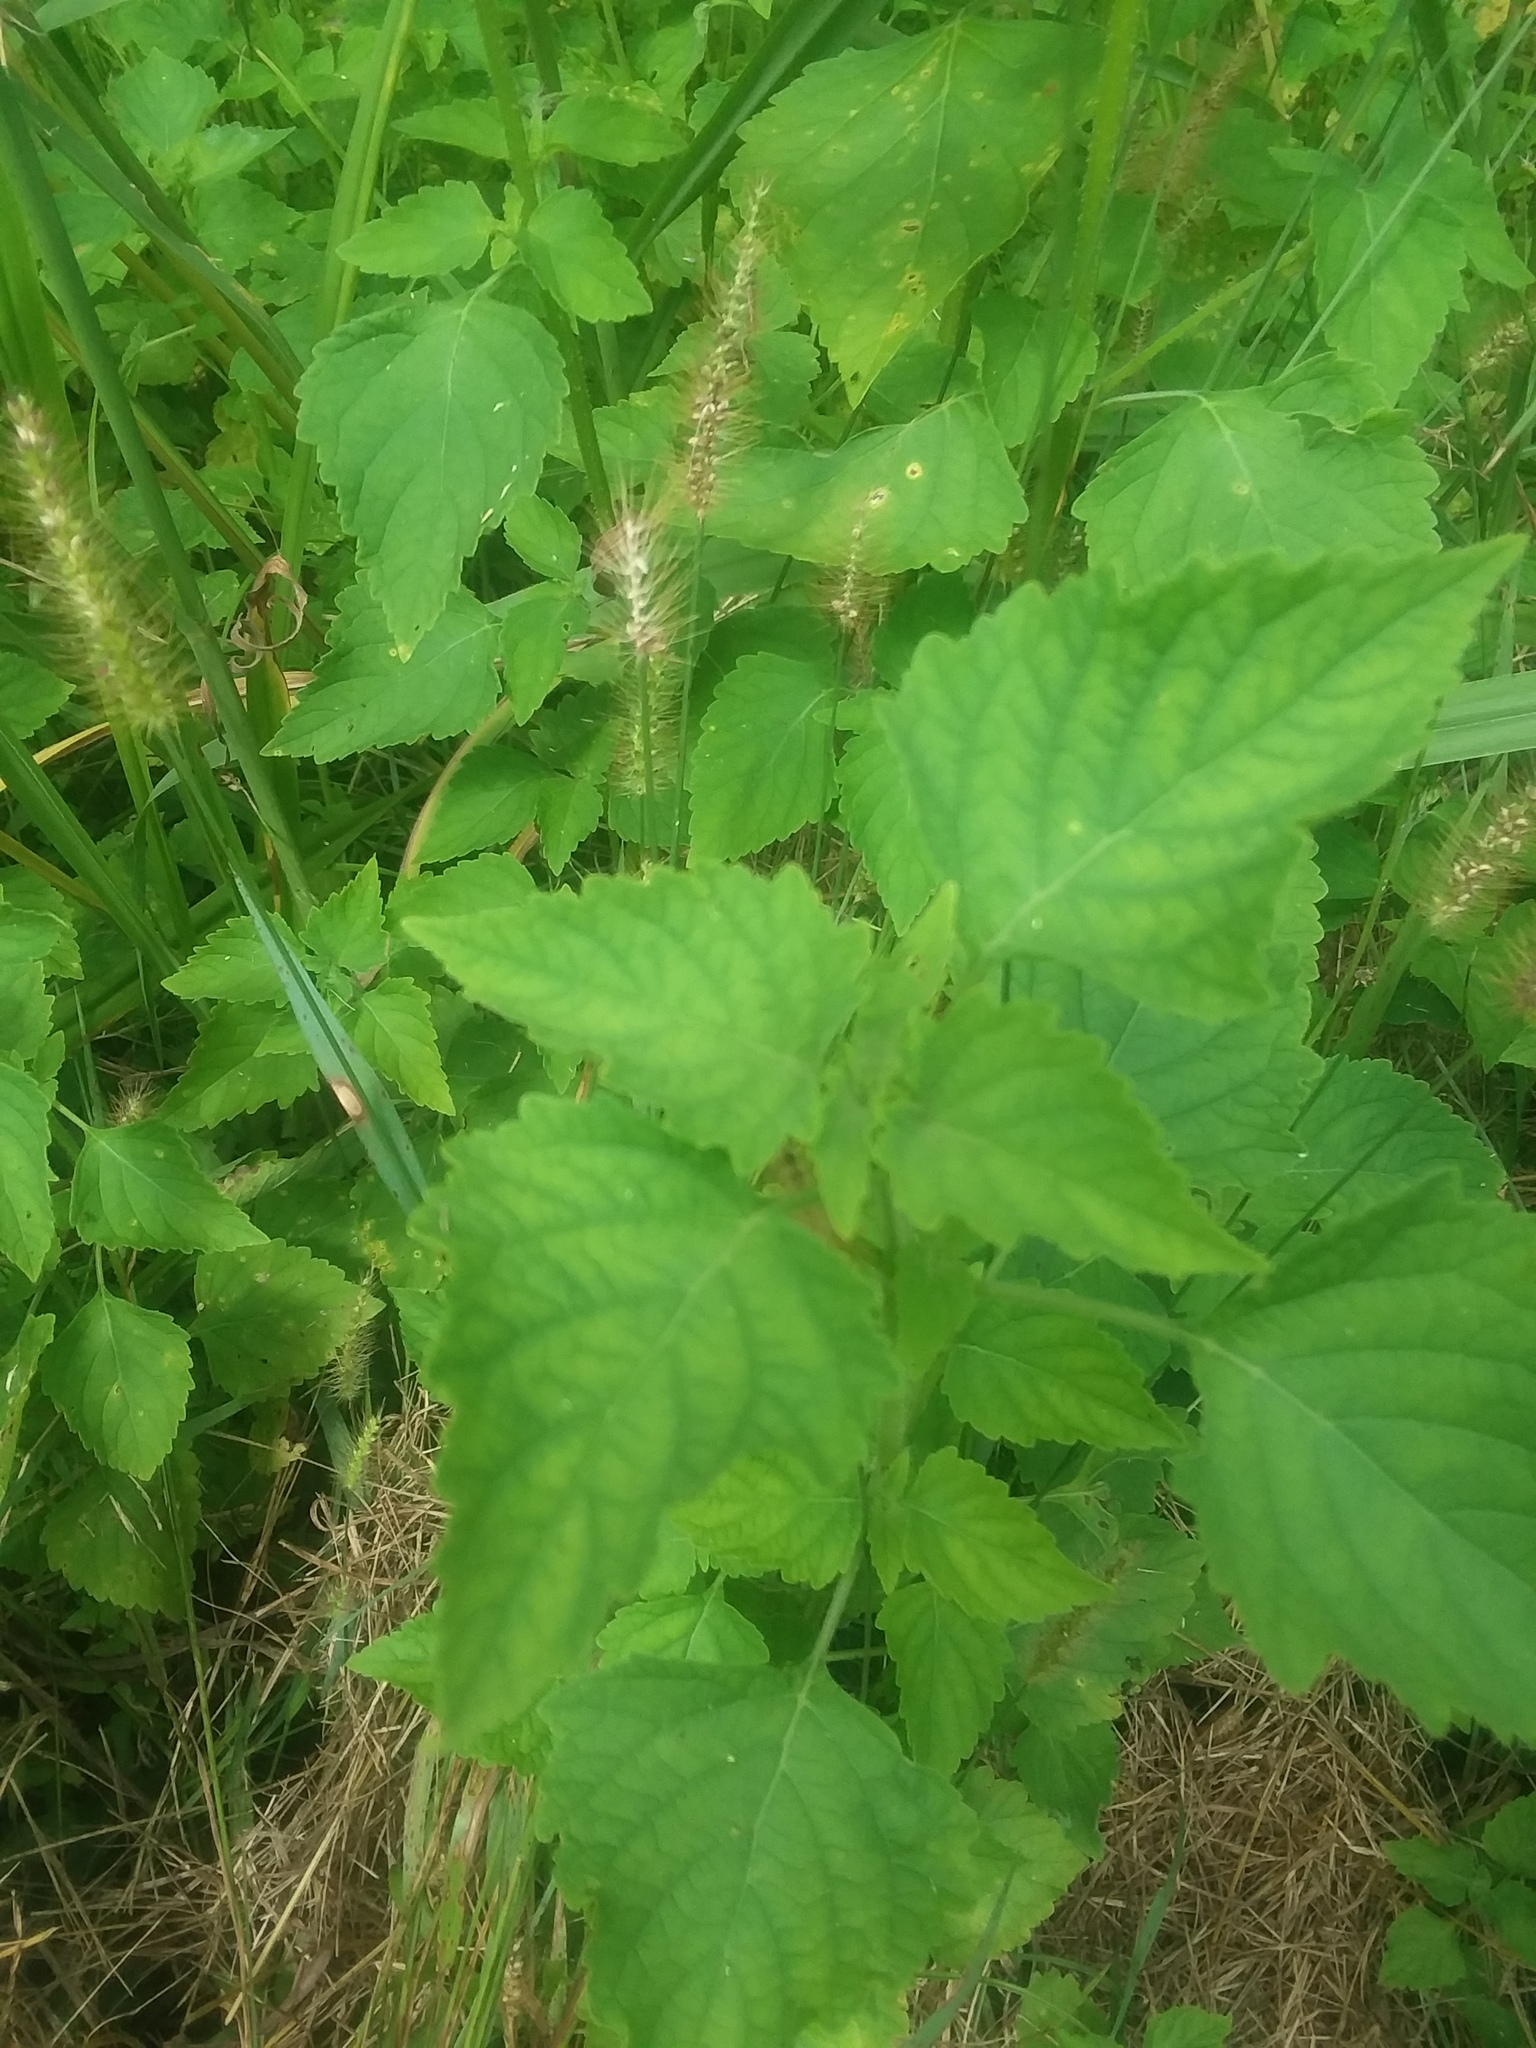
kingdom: Plantae
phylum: Tracheophyta
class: Magnoliopsida
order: Lamiales
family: Lamiaceae
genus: Cantinoa
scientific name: Cantinoa mutabilis
